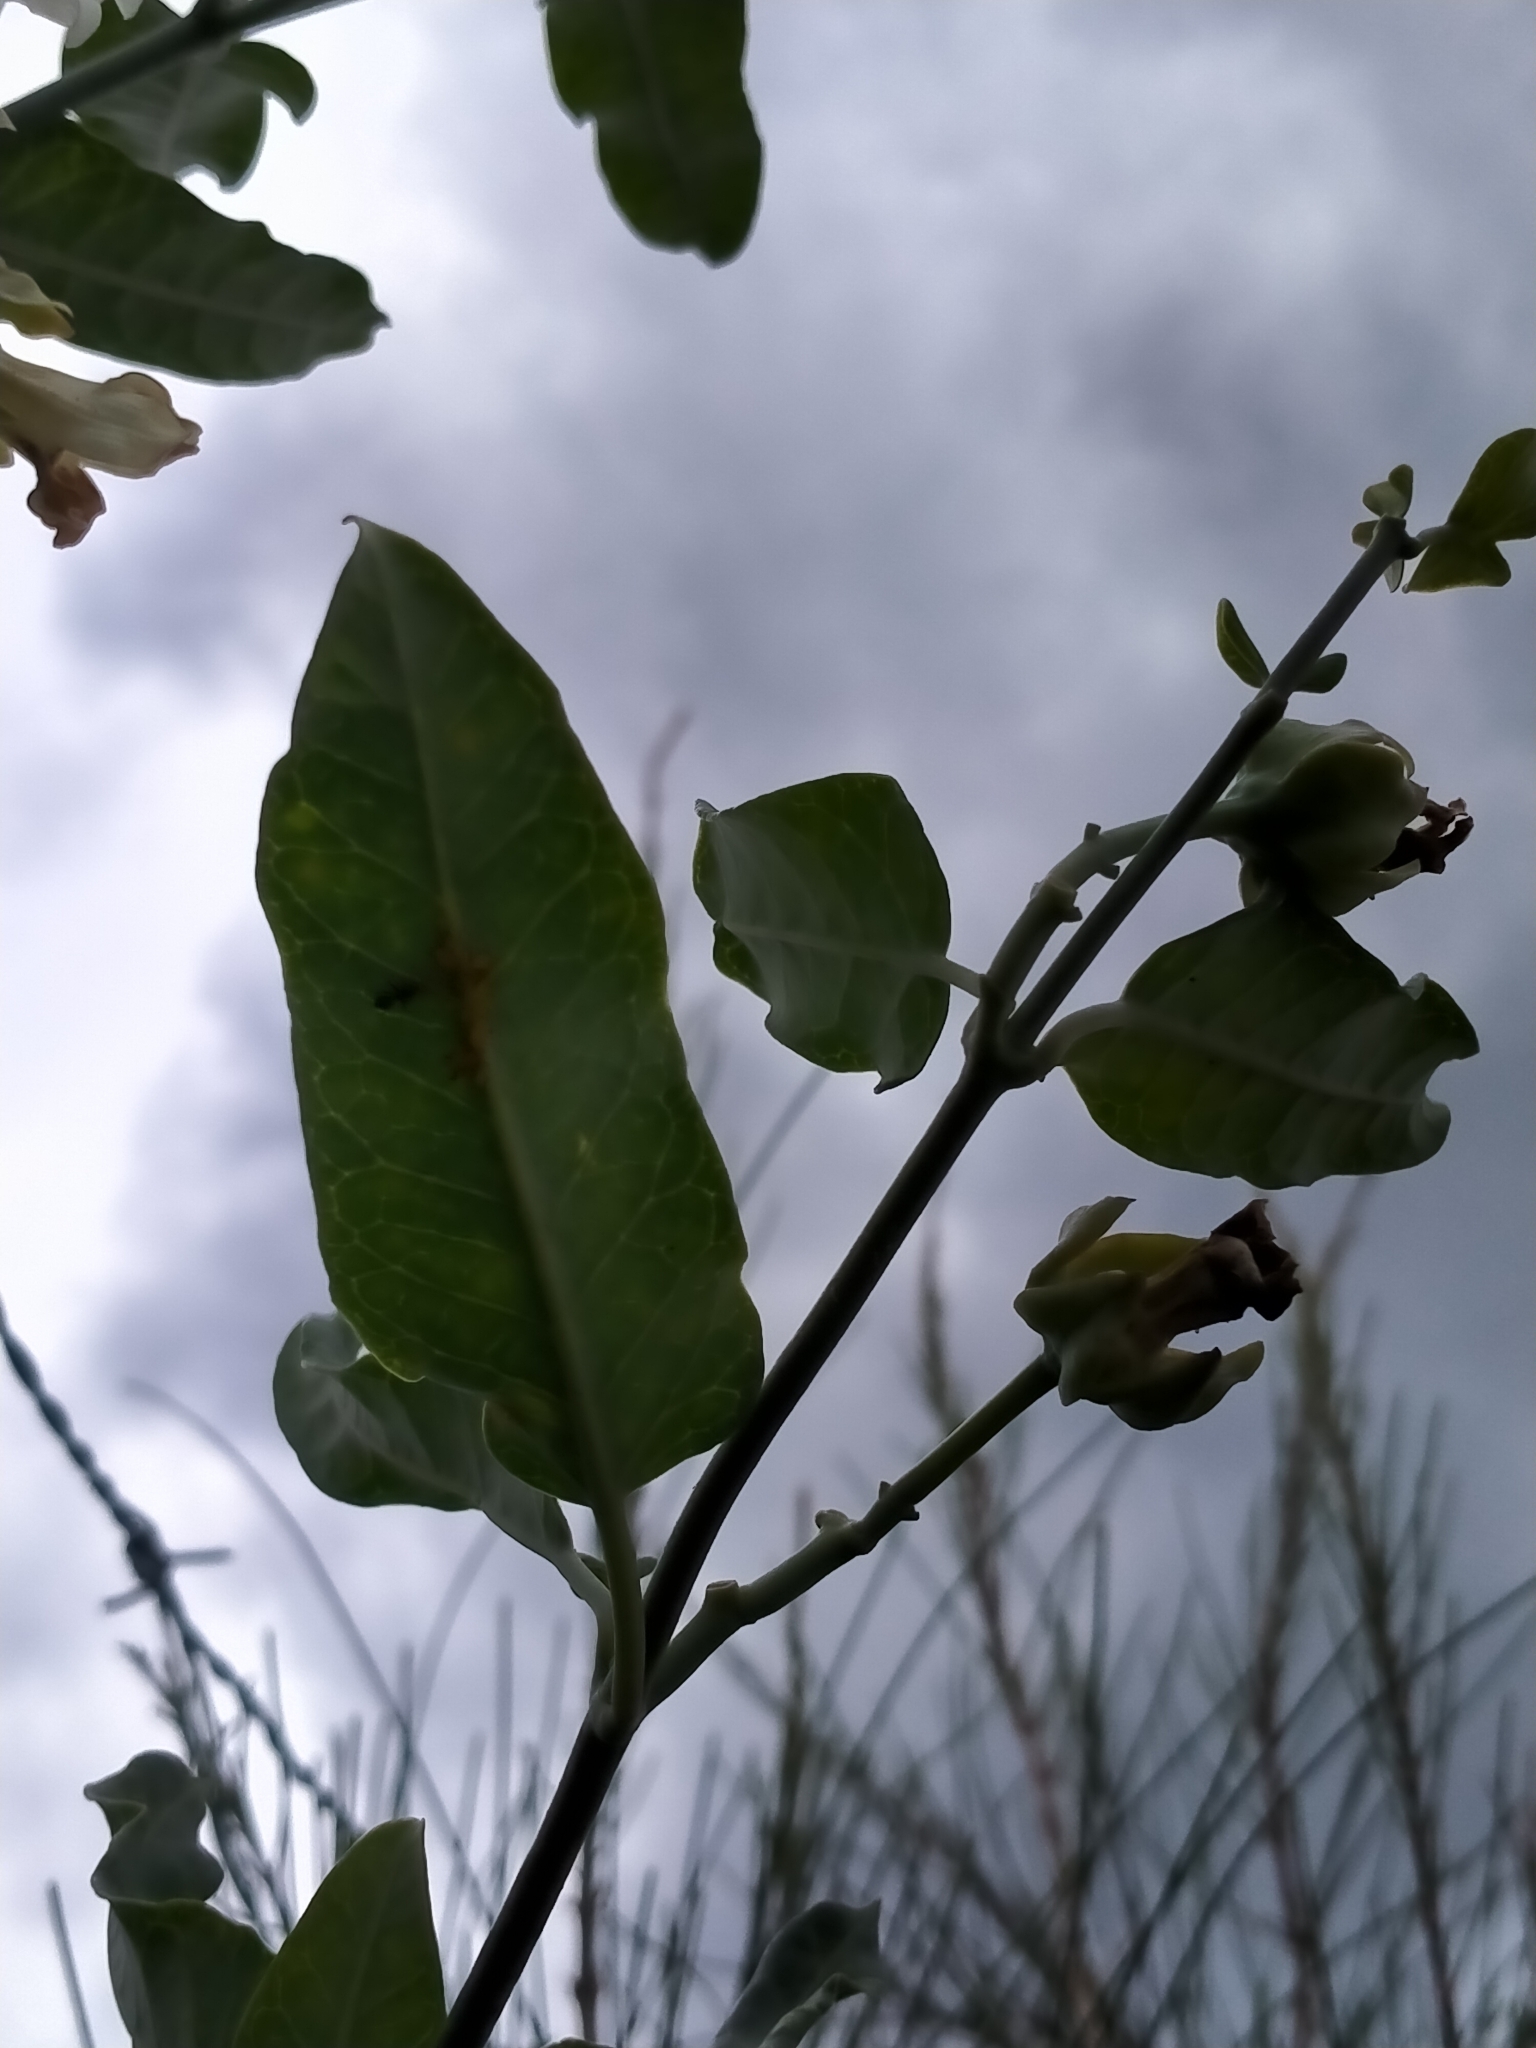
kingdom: Plantae
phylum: Tracheophyta
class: Magnoliopsida
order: Gentianales
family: Apocynaceae
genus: Araujia
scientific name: Araujia sericifera
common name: White bladderflower
